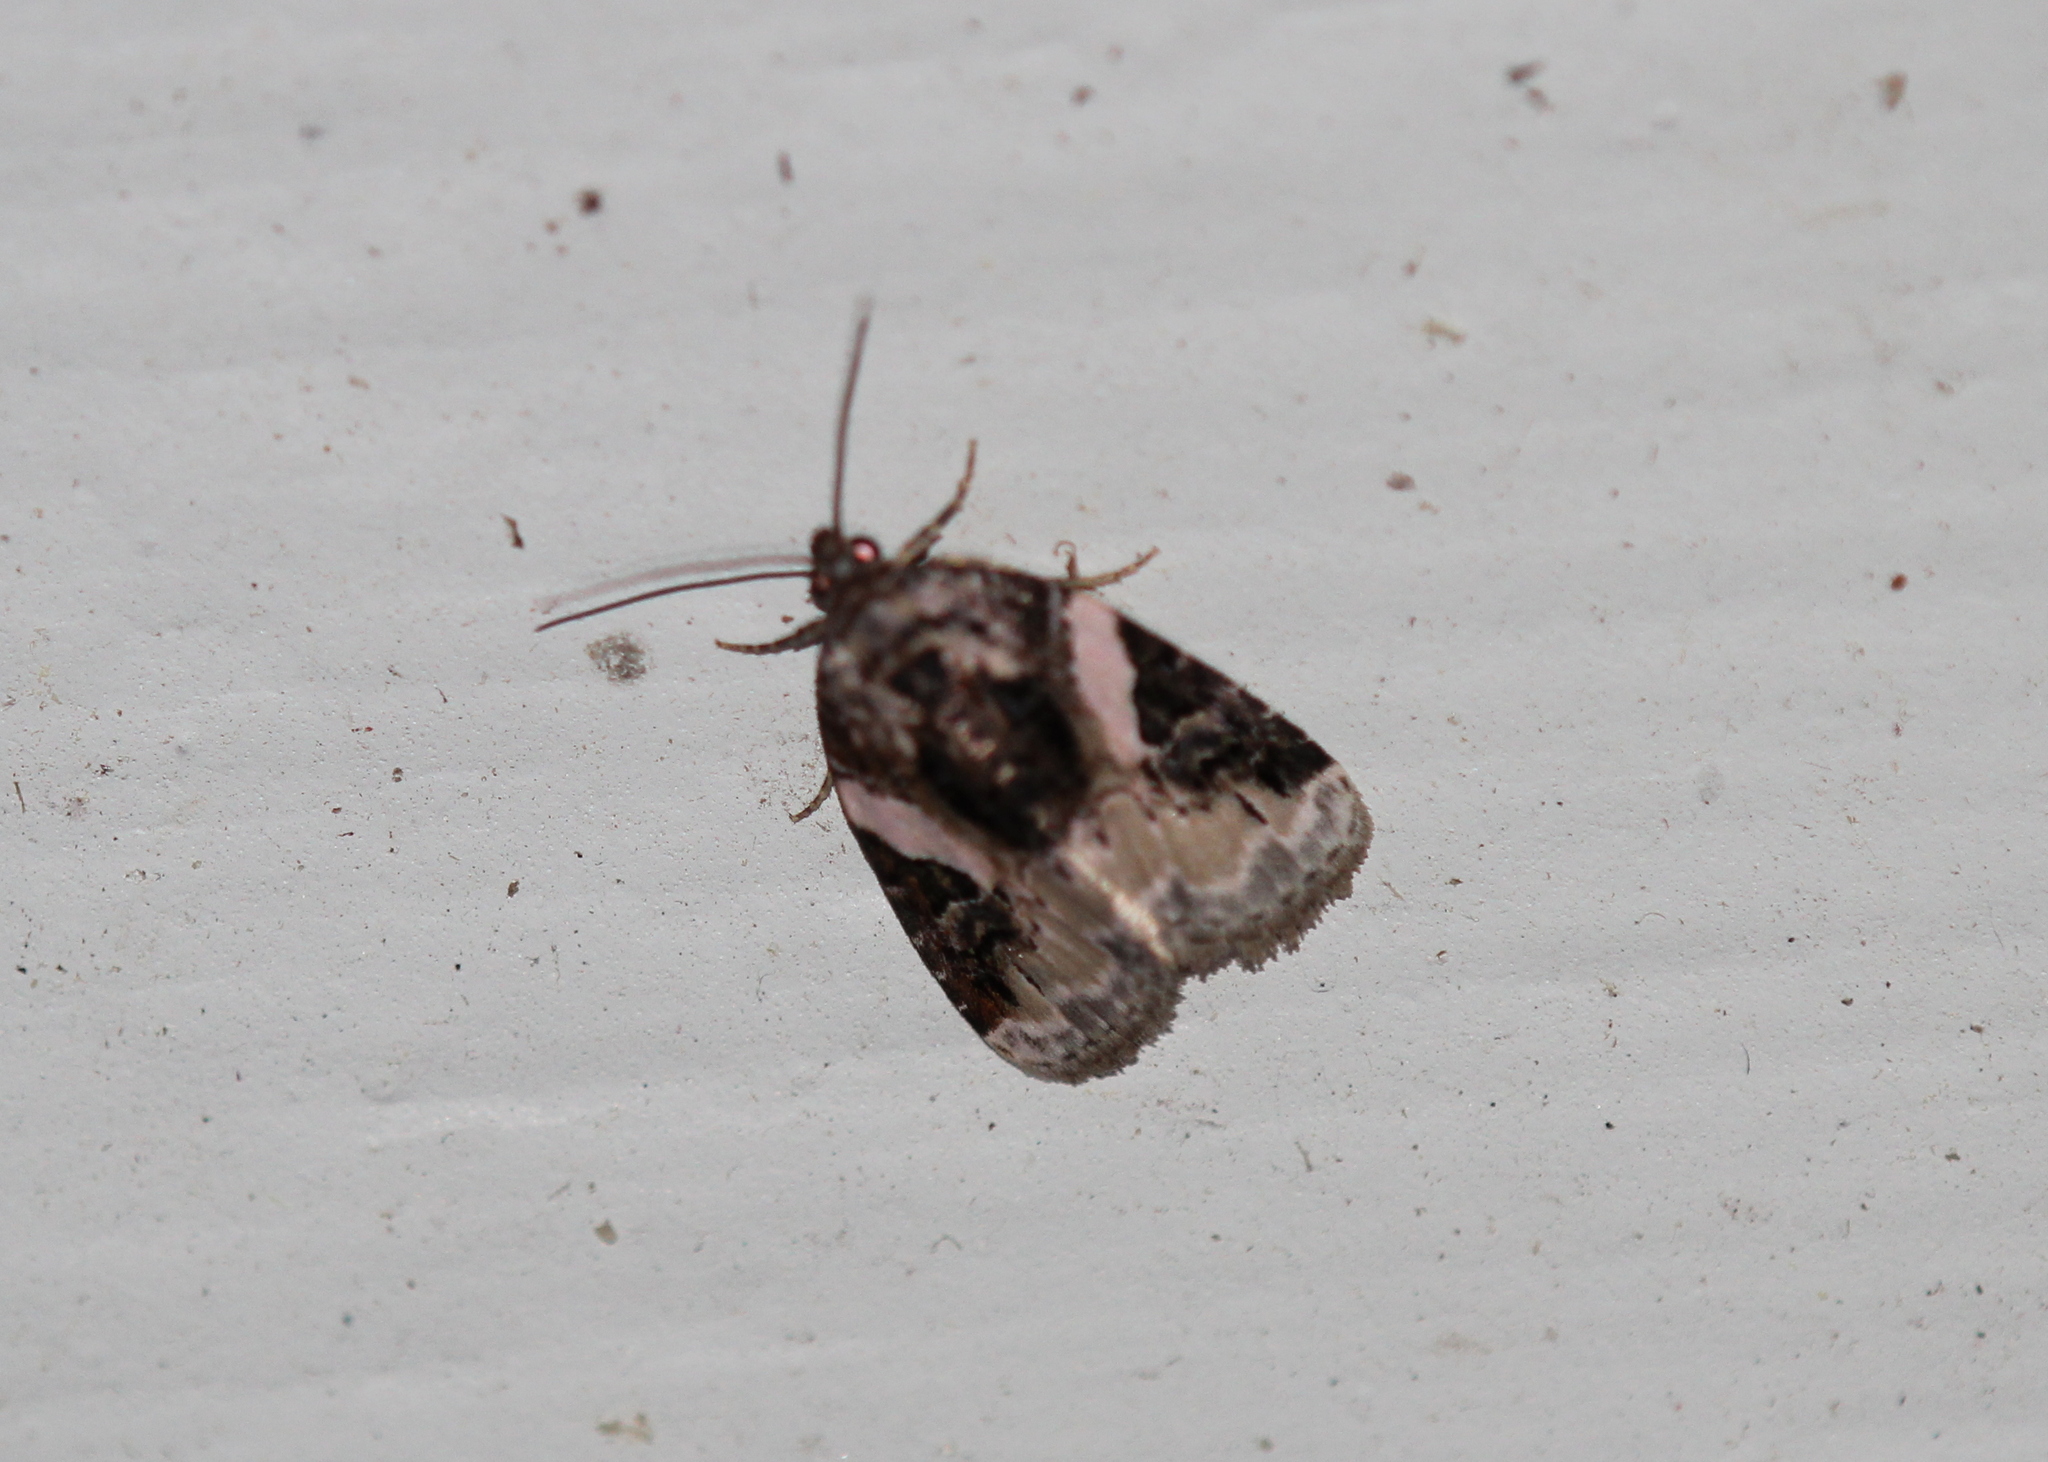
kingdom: Animalia
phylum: Arthropoda
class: Insecta
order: Lepidoptera
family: Noctuidae
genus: Pseudeustrotia
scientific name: Pseudeustrotia carneola
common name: Pink-barred lithacodia moth
